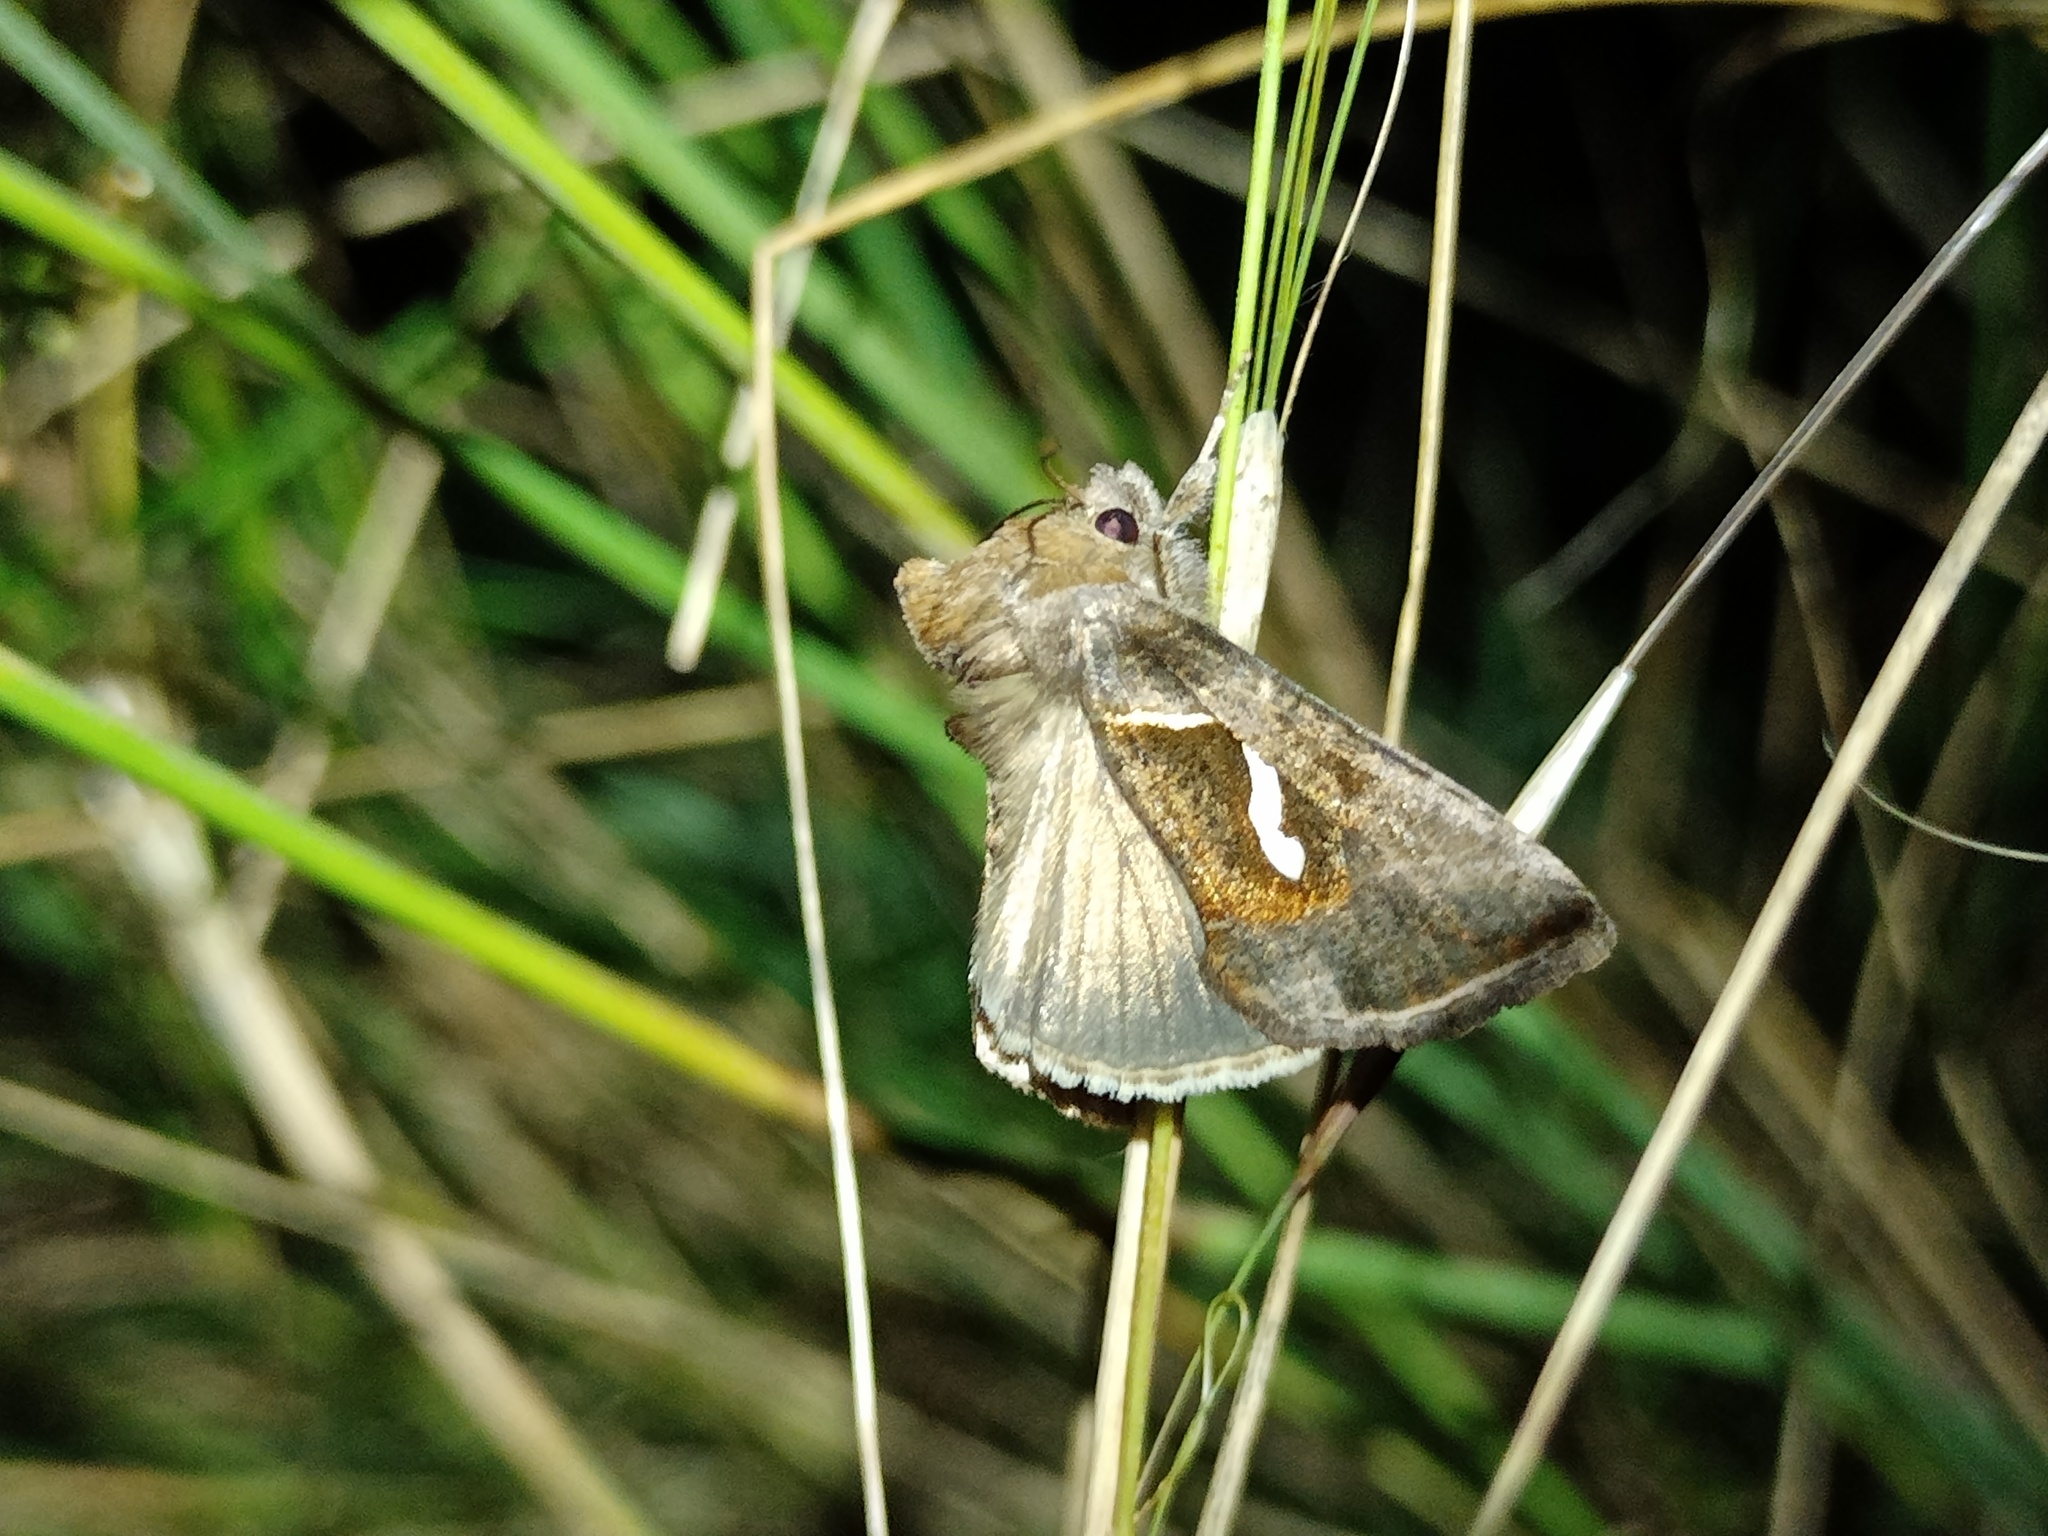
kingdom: Animalia
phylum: Arthropoda
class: Insecta
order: Lepidoptera
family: Noctuidae
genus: Macdunnoughia
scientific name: Macdunnoughia confusa
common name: Dewick's plusia
